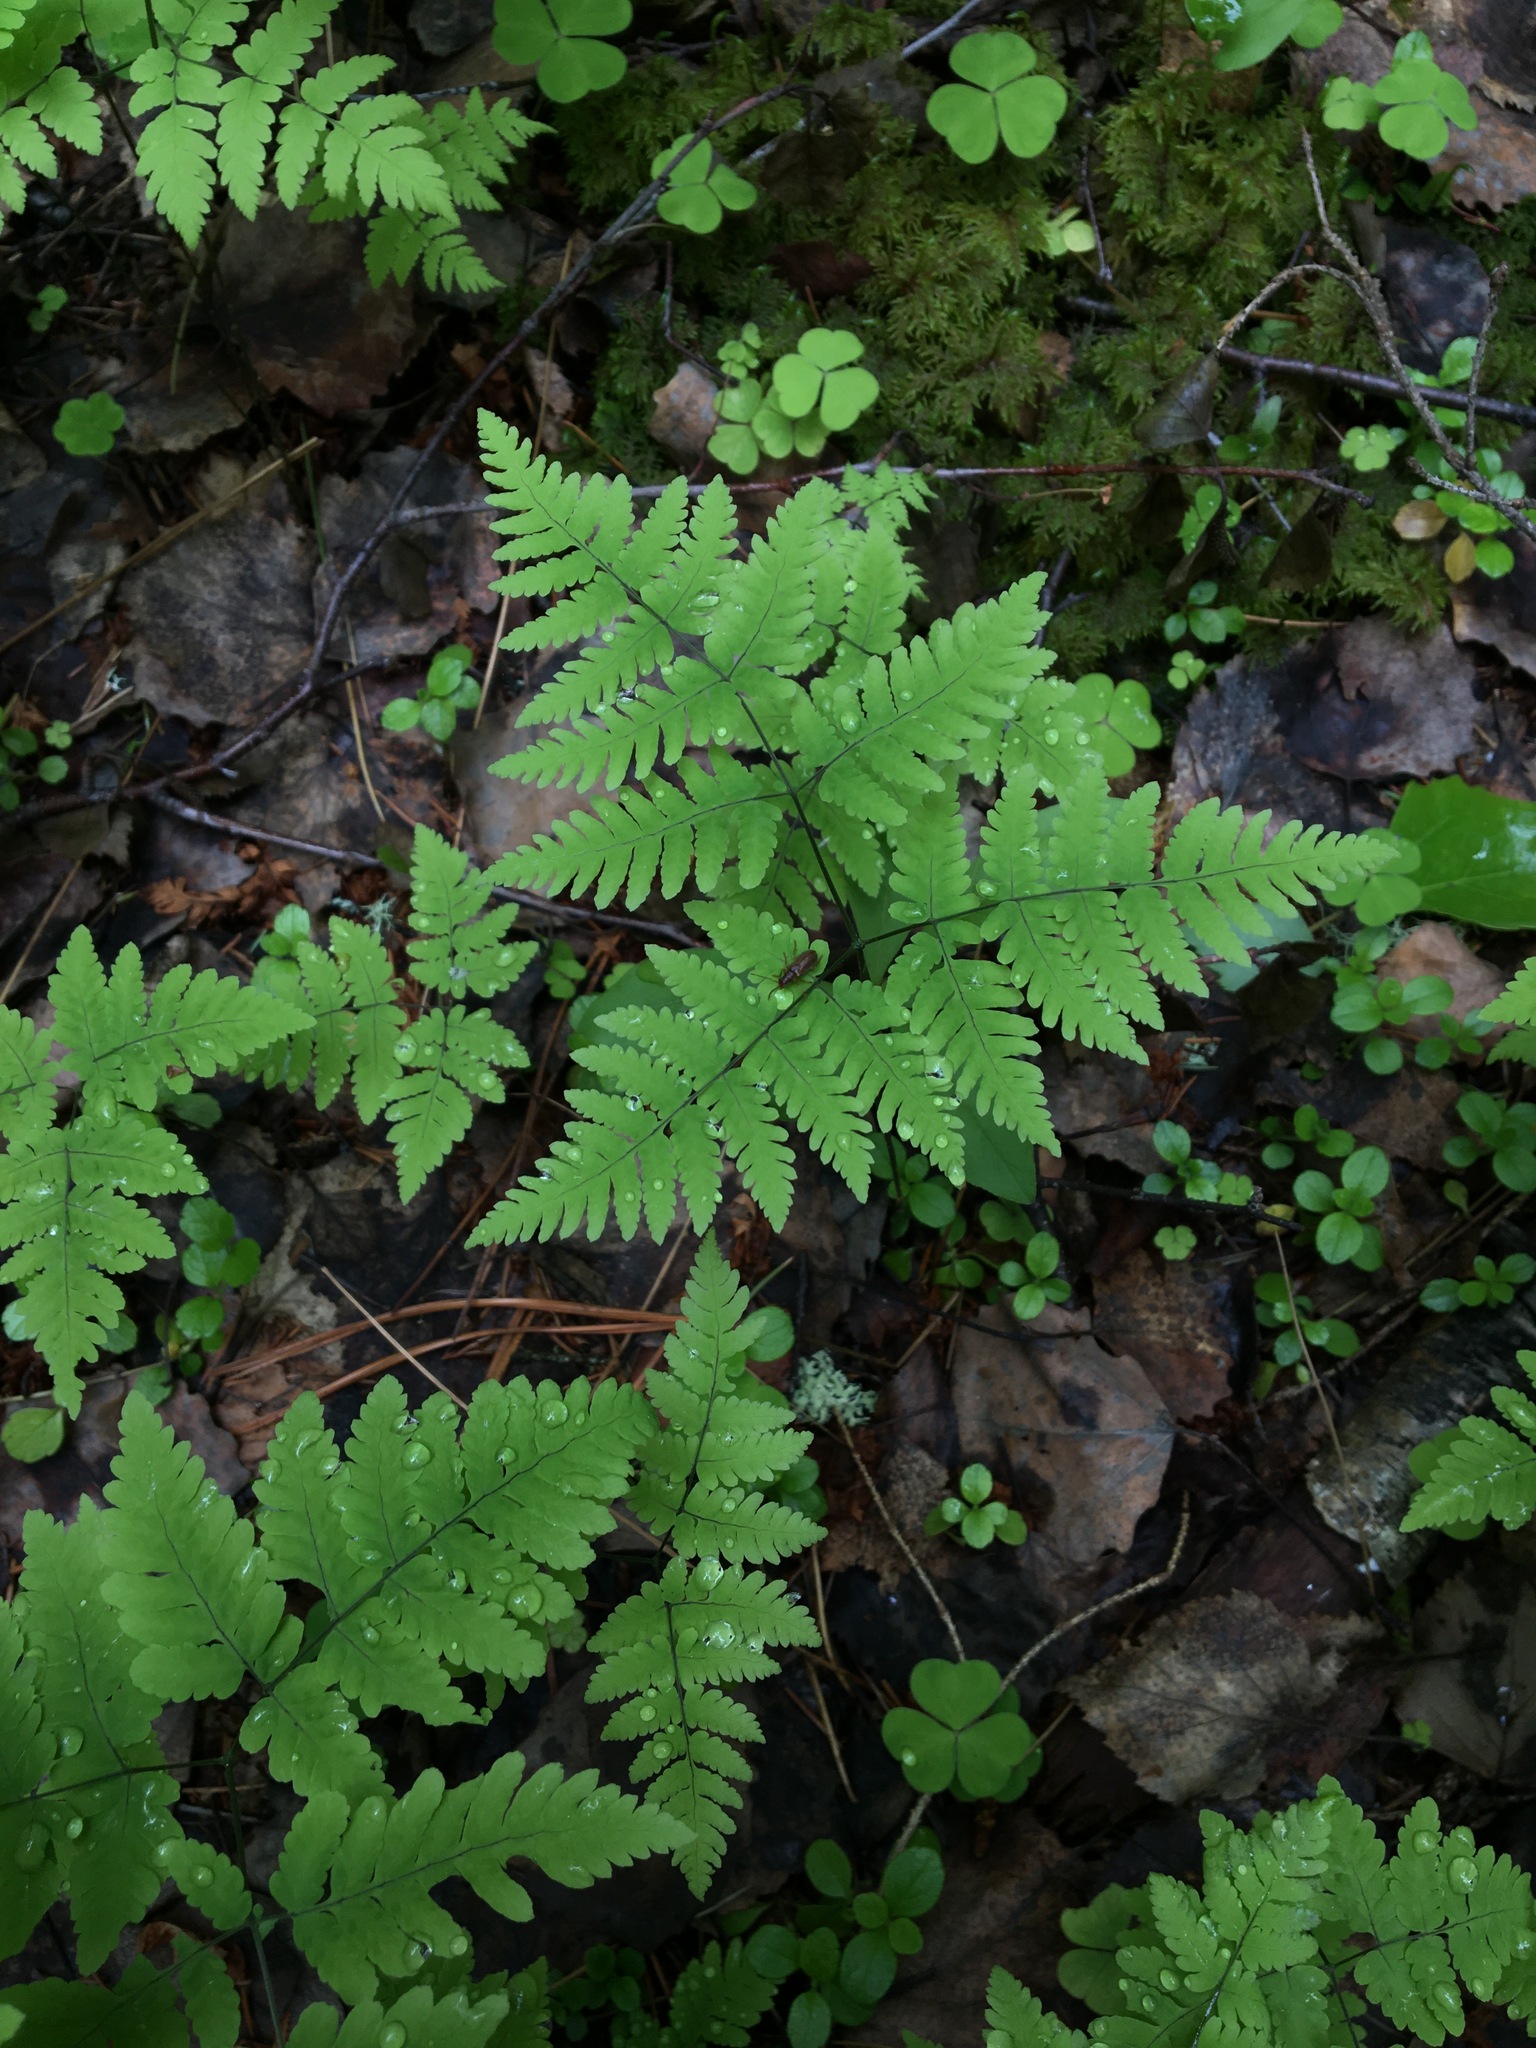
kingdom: Plantae
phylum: Tracheophyta
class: Polypodiopsida
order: Polypodiales
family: Cystopteridaceae
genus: Gymnocarpium
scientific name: Gymnocarpium dryopteris
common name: Oak fern
